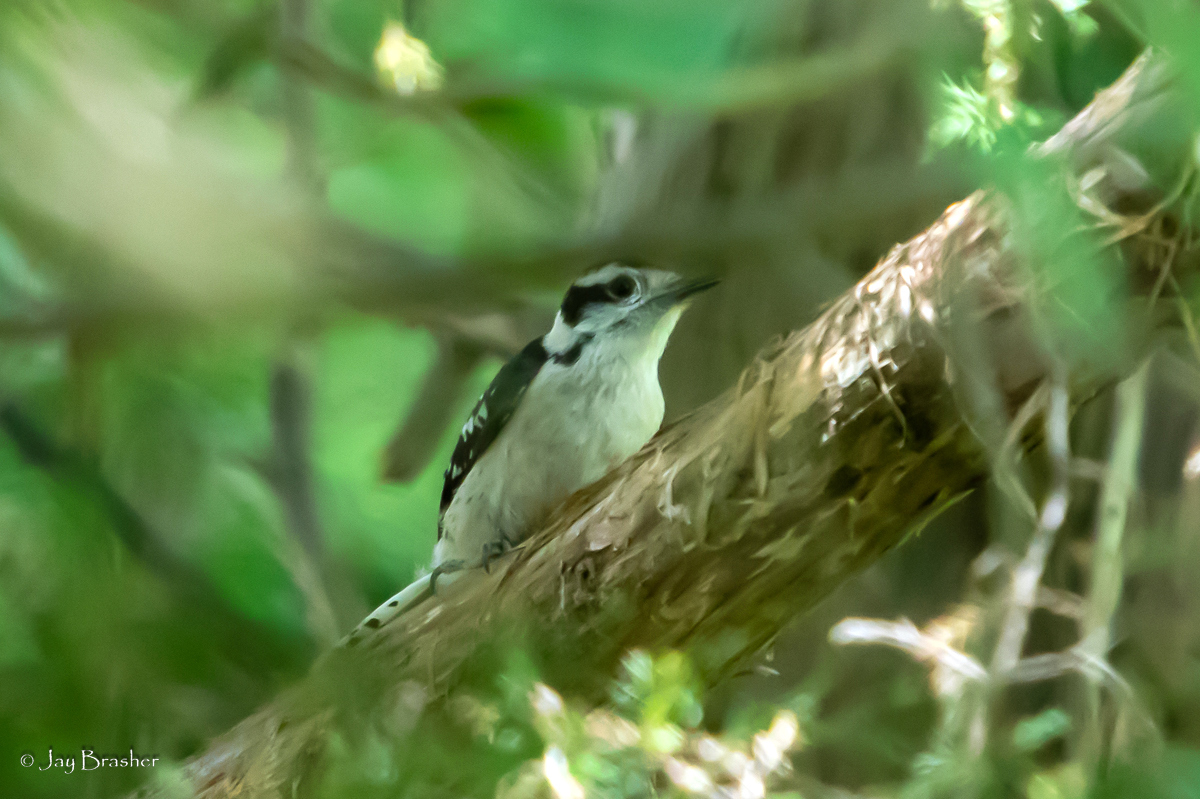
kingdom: Animalia
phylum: Chordata
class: Aves
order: Piciformes
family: Picidae
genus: Dryobates
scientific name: Dryobates pubescens
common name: Downy woodpecker
